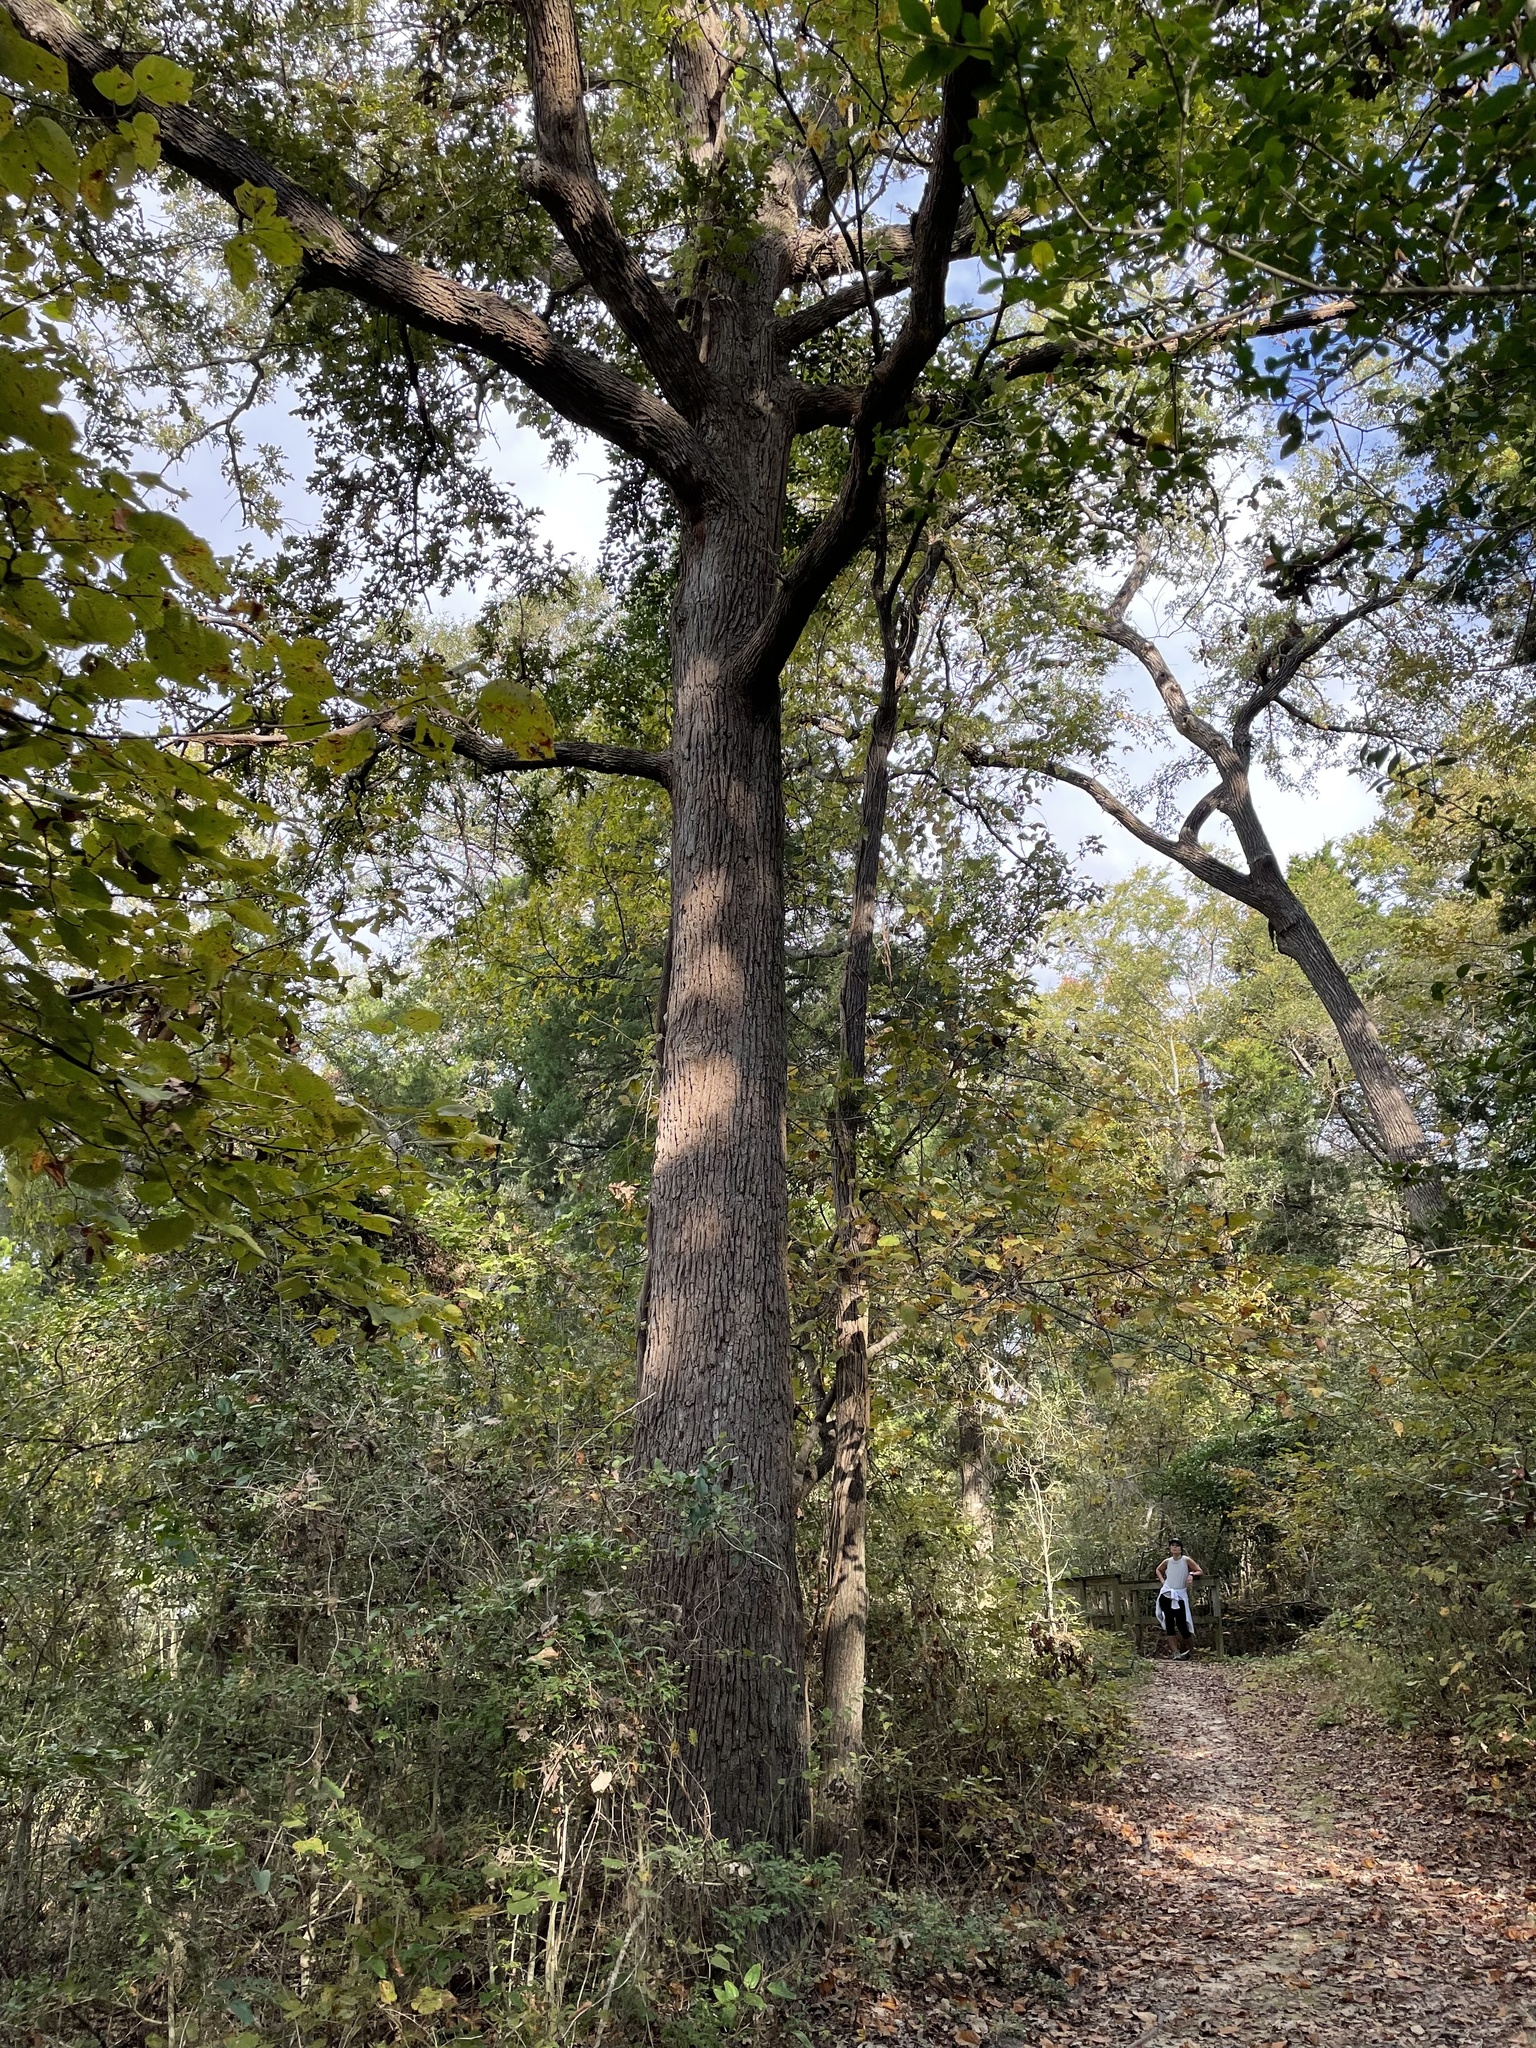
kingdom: Plantae
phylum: Tracheophyta
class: Magnoliopsida
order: Fagales
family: Fagaceae
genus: Quercus
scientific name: Quercus macrocarpa
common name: Bur oak
